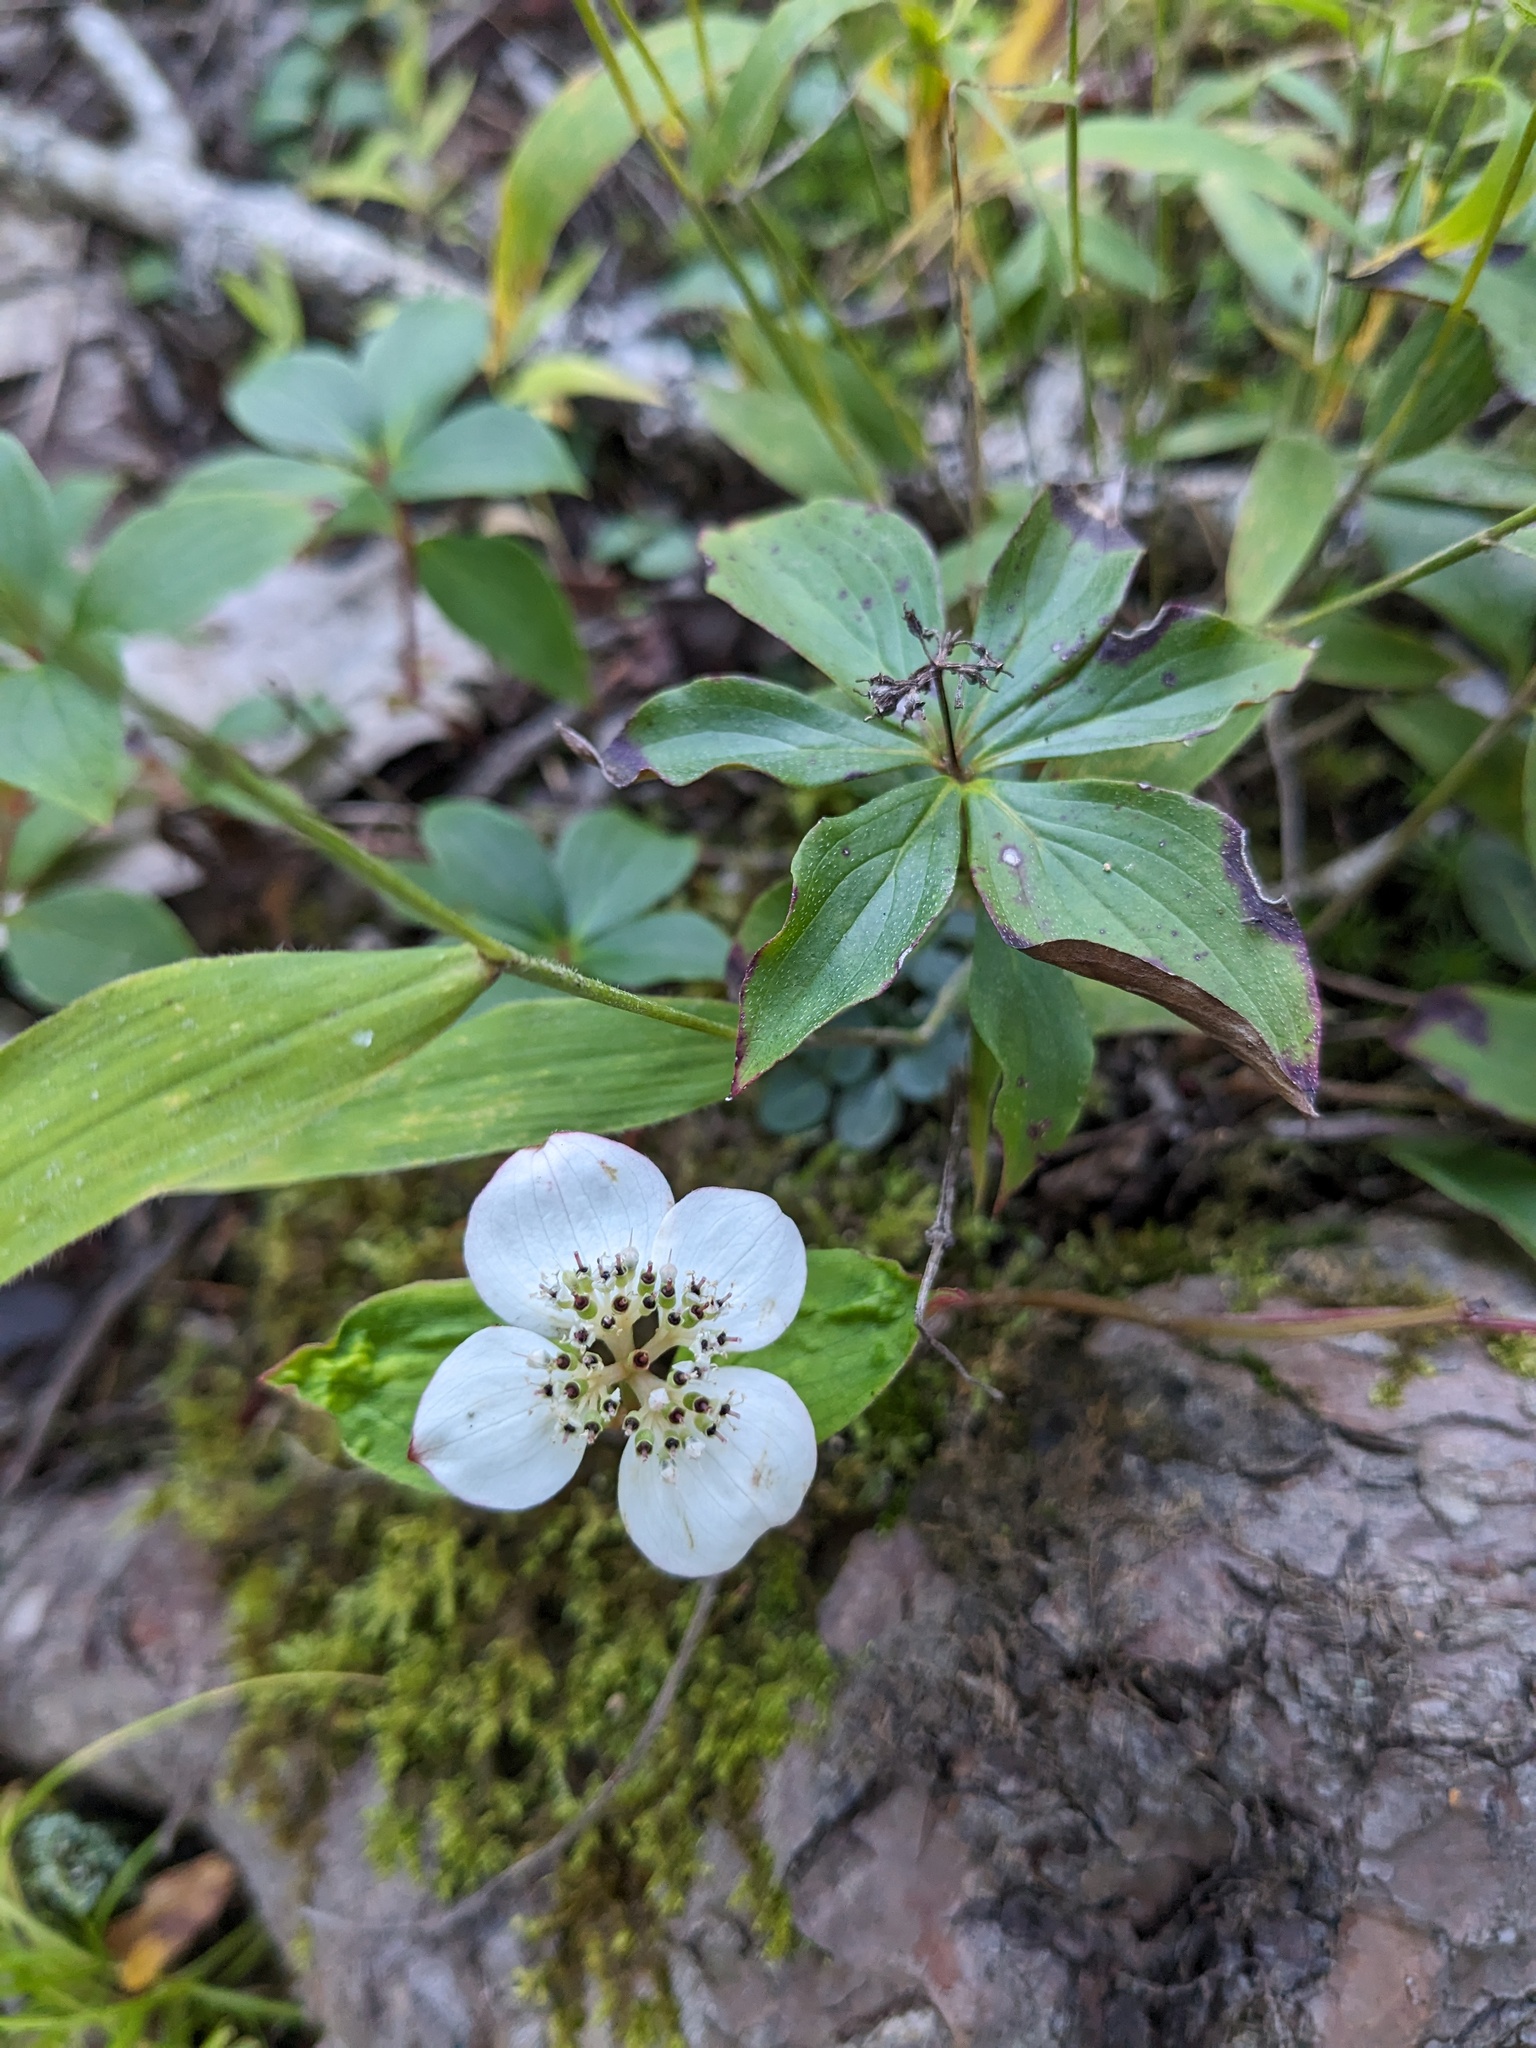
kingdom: Plantae
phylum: Tracheophyta
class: Magnoliopsida
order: Cornales
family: Cornaceae
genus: Cornus
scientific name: Cornus canadensis
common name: Creeping dogwood
